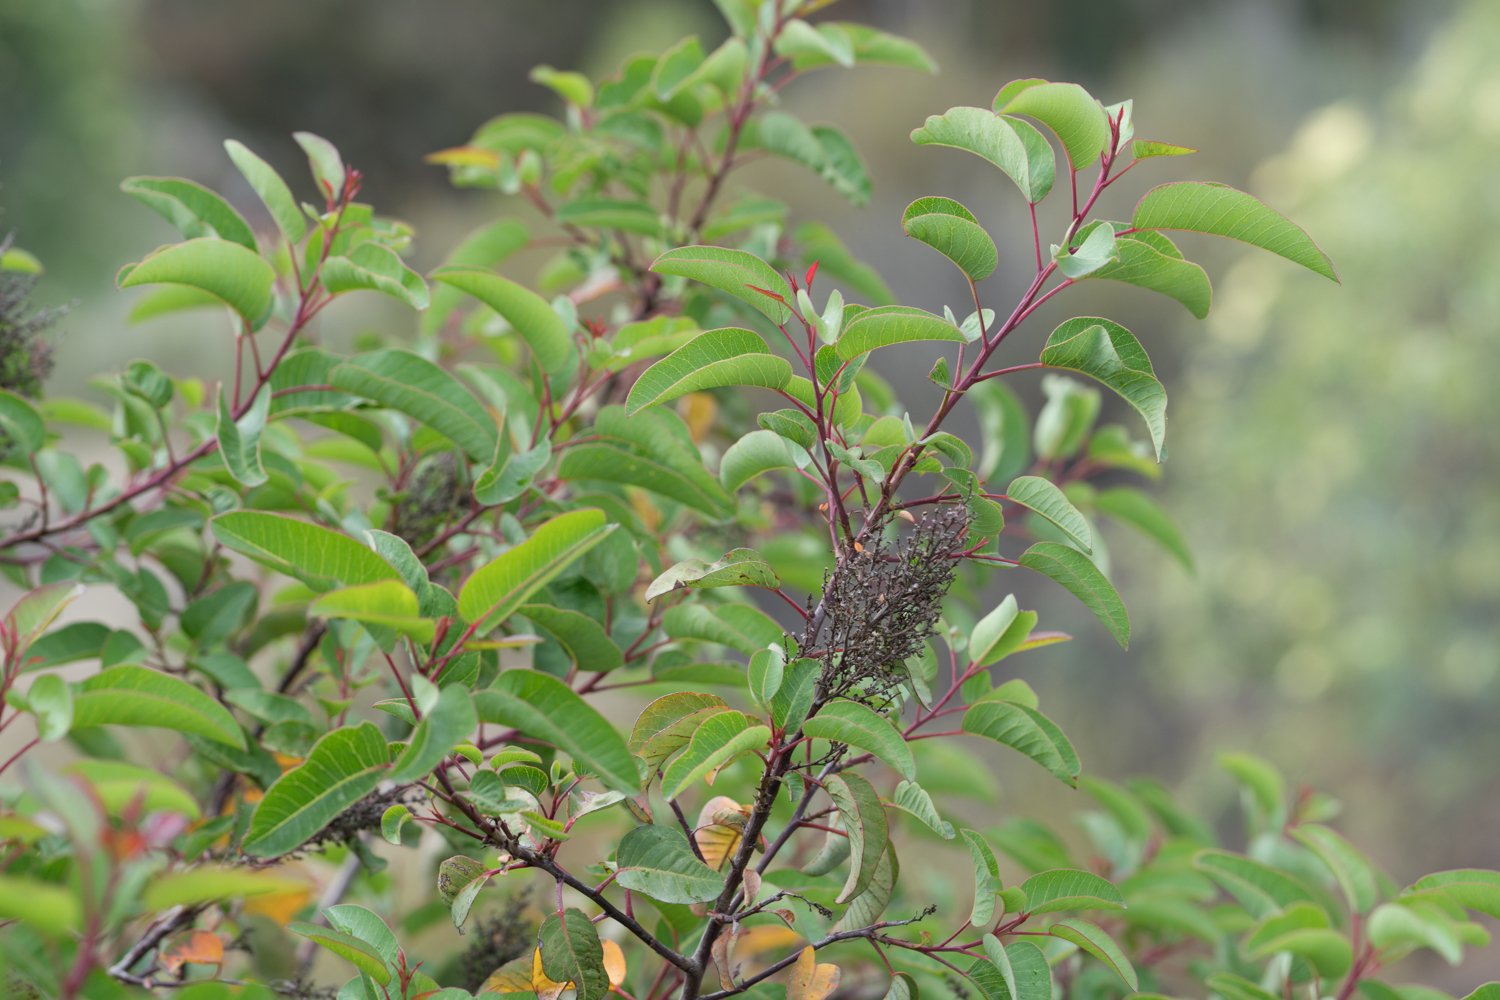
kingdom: Plantae
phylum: Tracheophyta
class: Magnoliopsida
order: Sapindales
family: Anacardiaceae
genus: Malosma
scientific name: Malosma laurina
